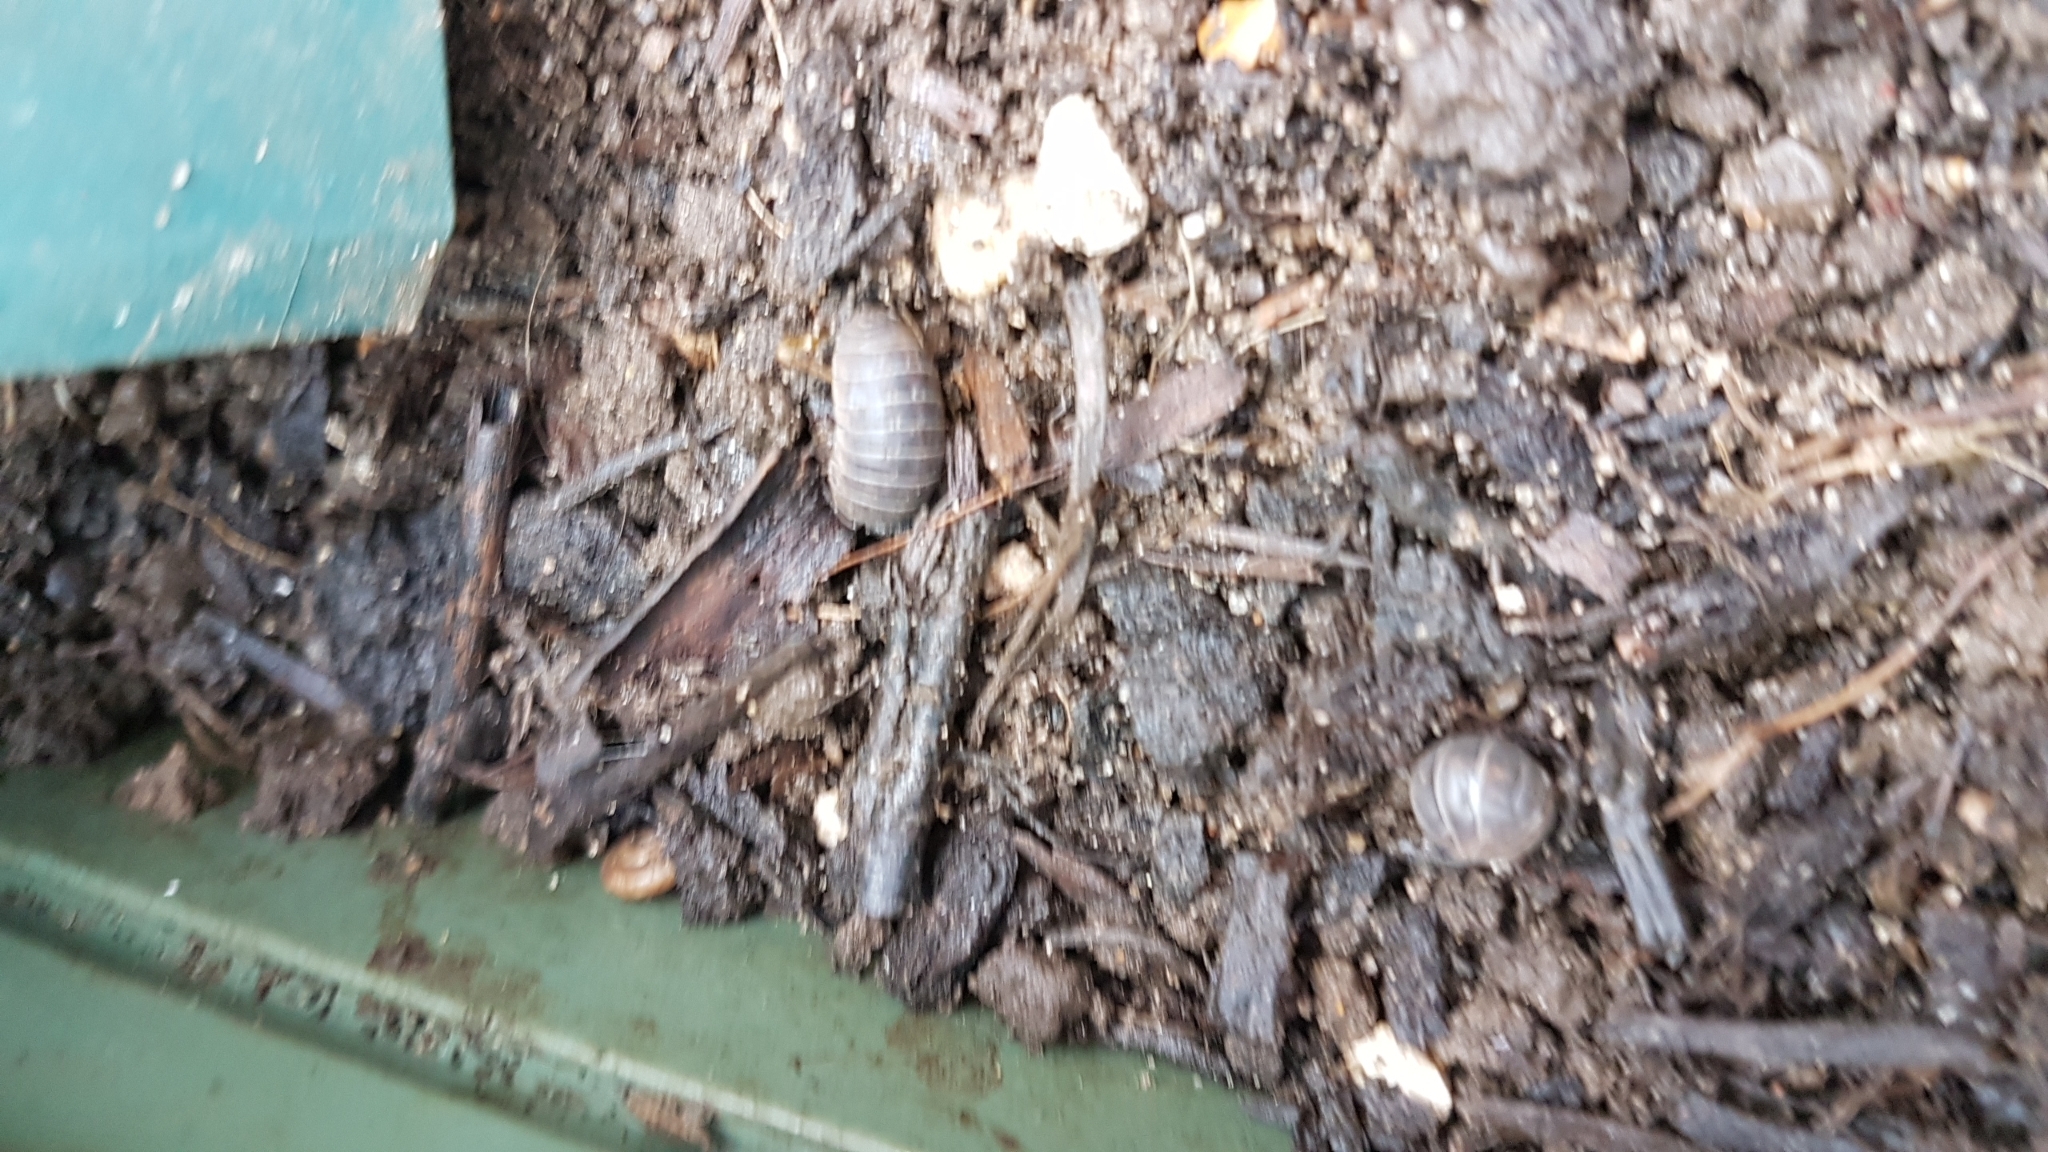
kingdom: Animalia
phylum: Arthropoda
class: Malacostraca
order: Isopoda
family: Armadillidiidae
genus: Armadillidium
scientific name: Armadillidium vulgare
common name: Common pill woodlouse
